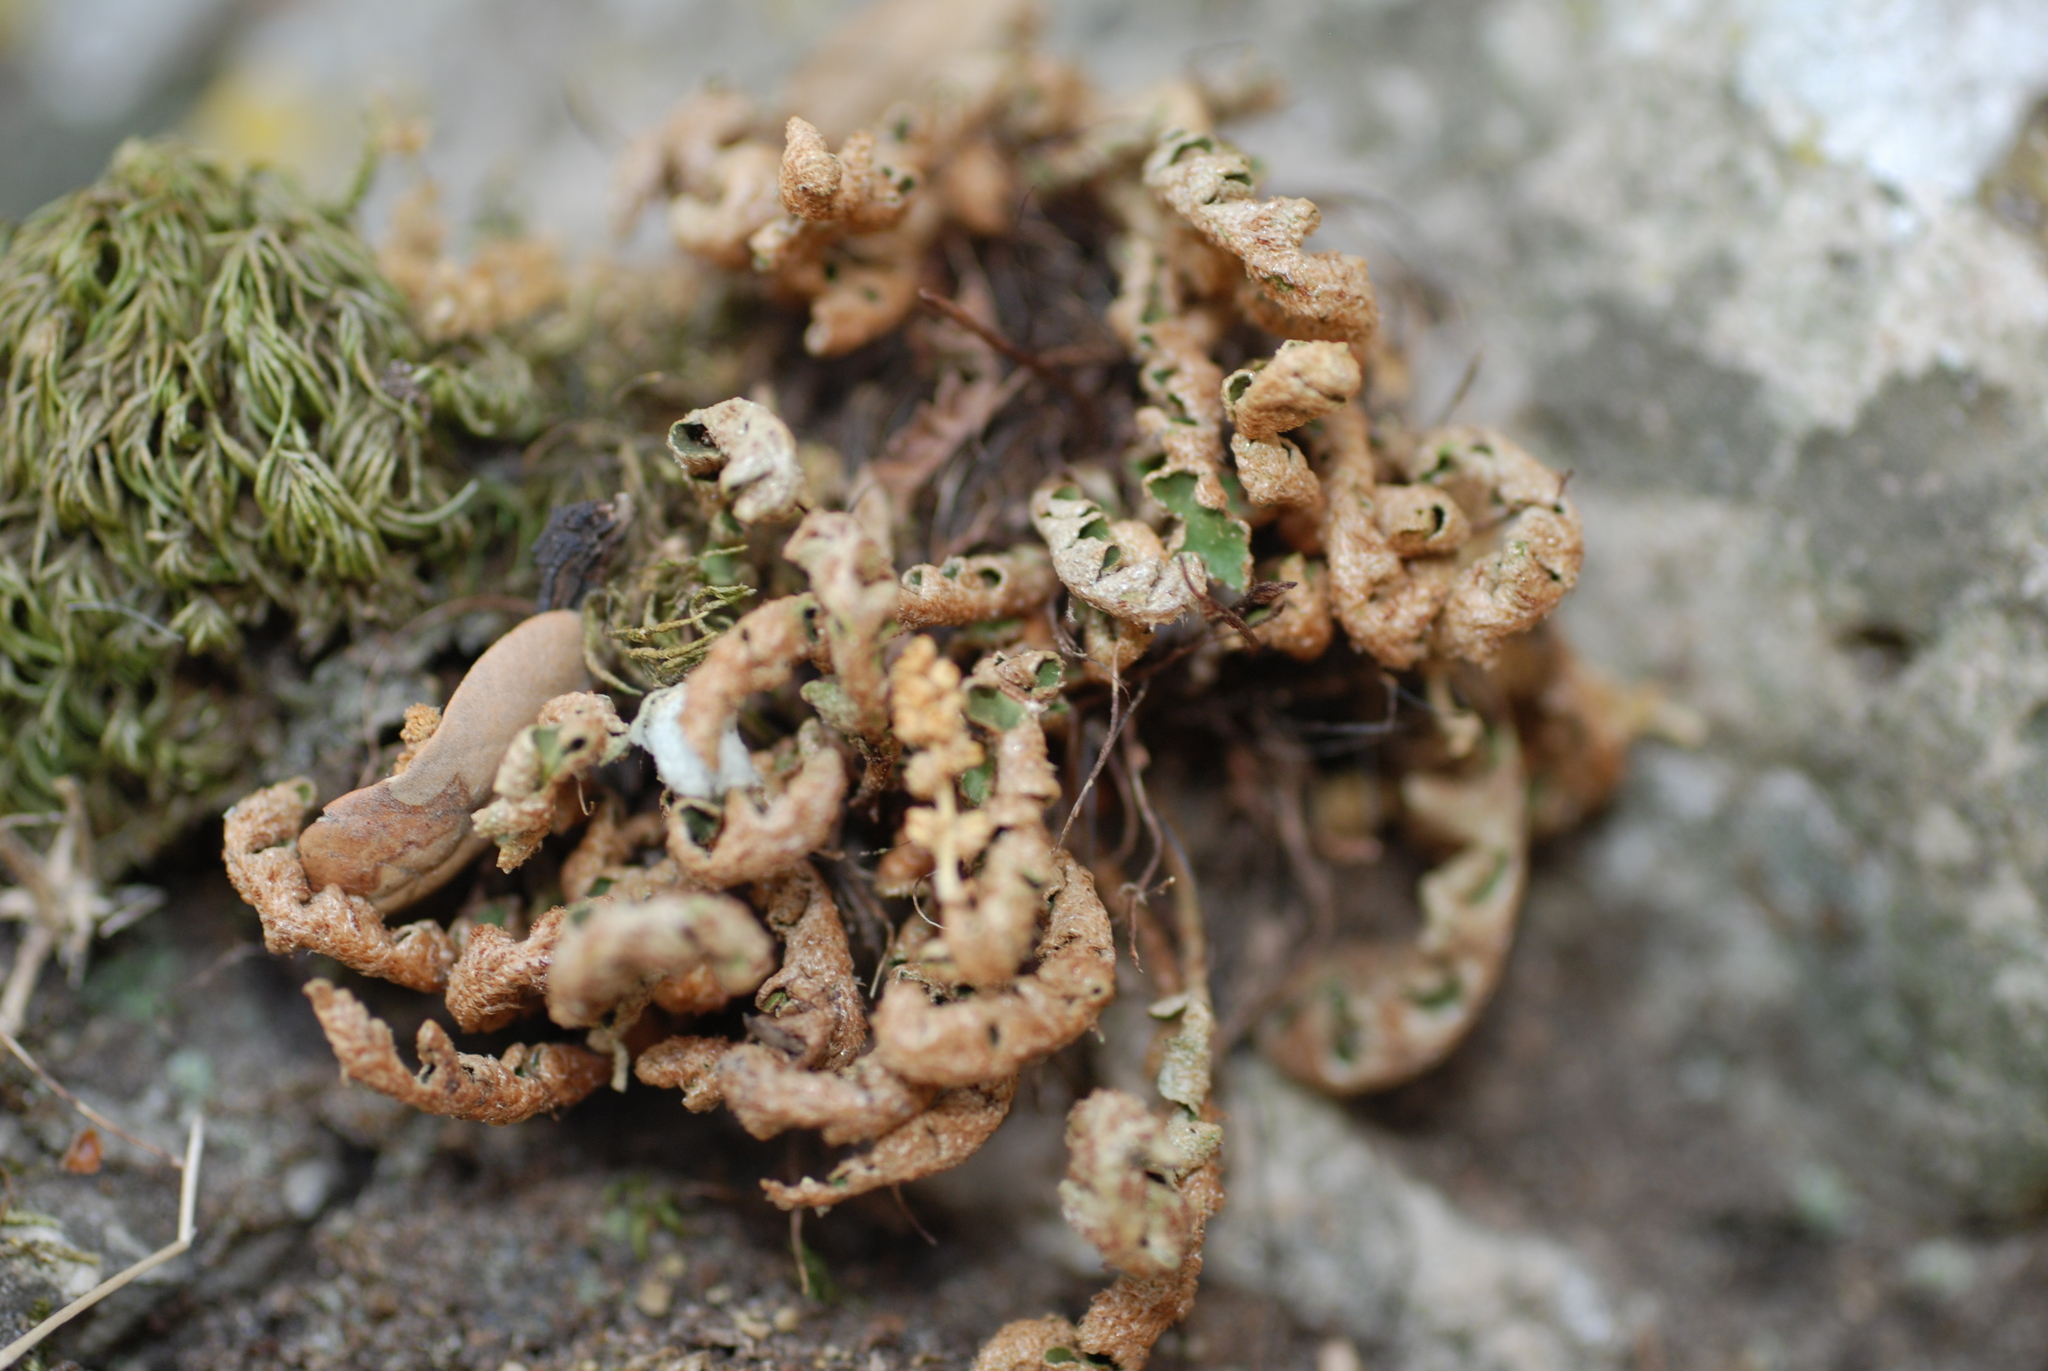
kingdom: Plantae
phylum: Tracheophyta
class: Polypodiopsida
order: Polypodiales
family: Aspleniaceae
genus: Asplenium
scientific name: Asplenium ceterach
